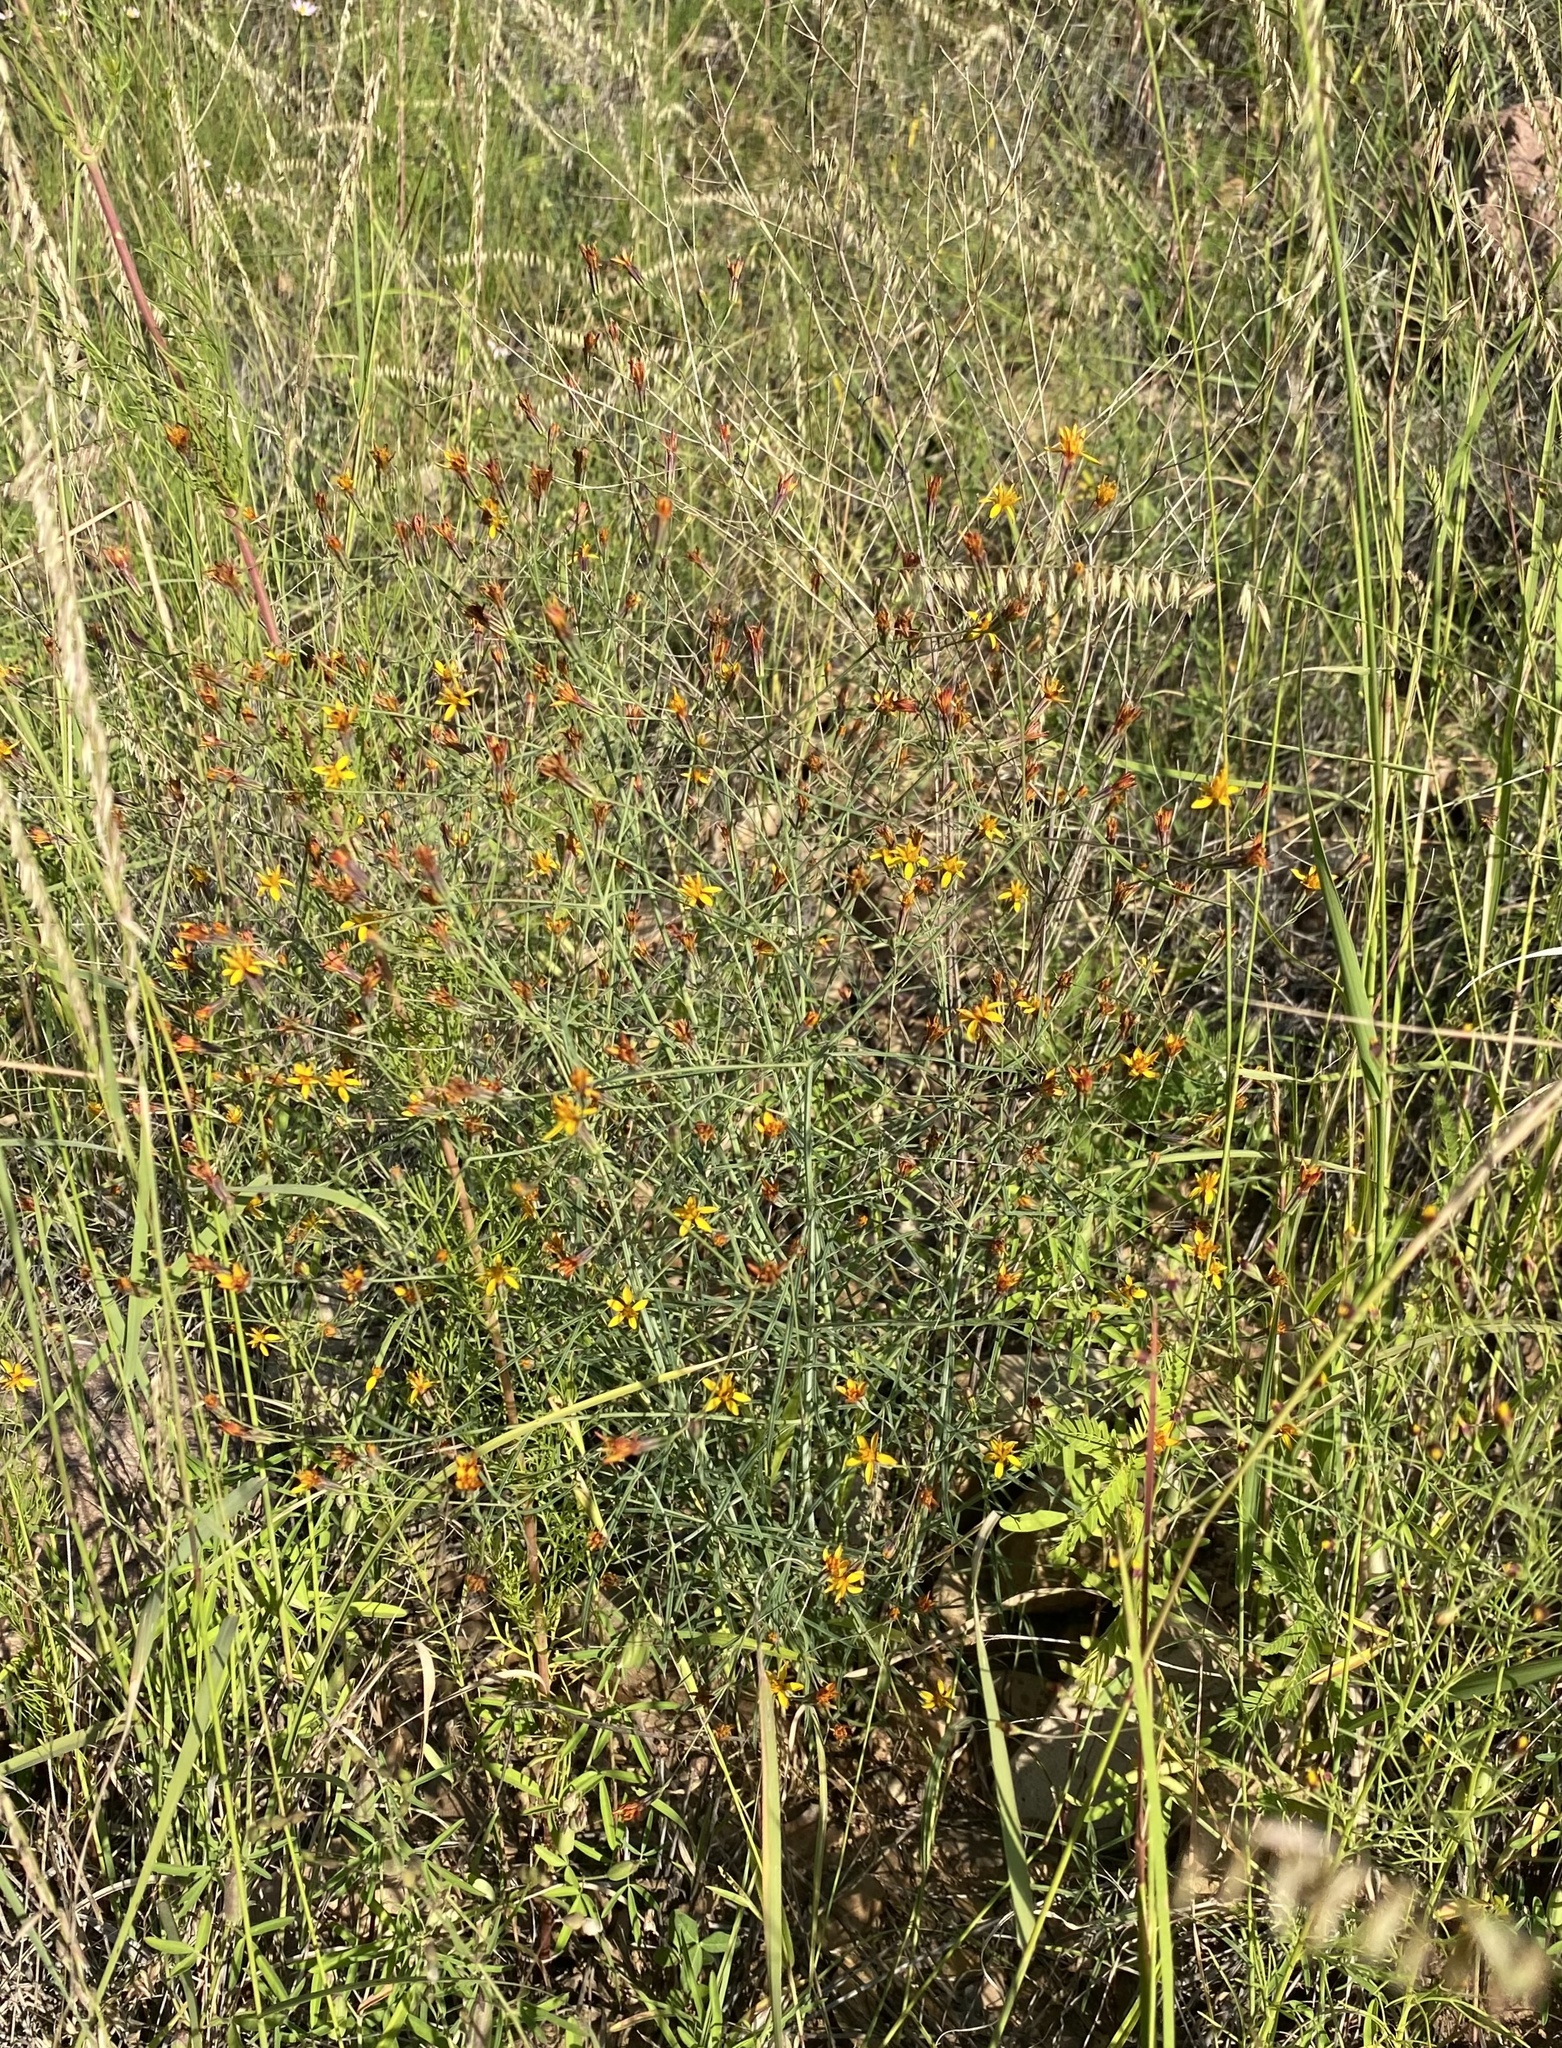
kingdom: Plantae
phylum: Tracheophyta
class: Magnoliopsida
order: Asterales
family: Asteraceae
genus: Pectis
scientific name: Pectis imberbis
